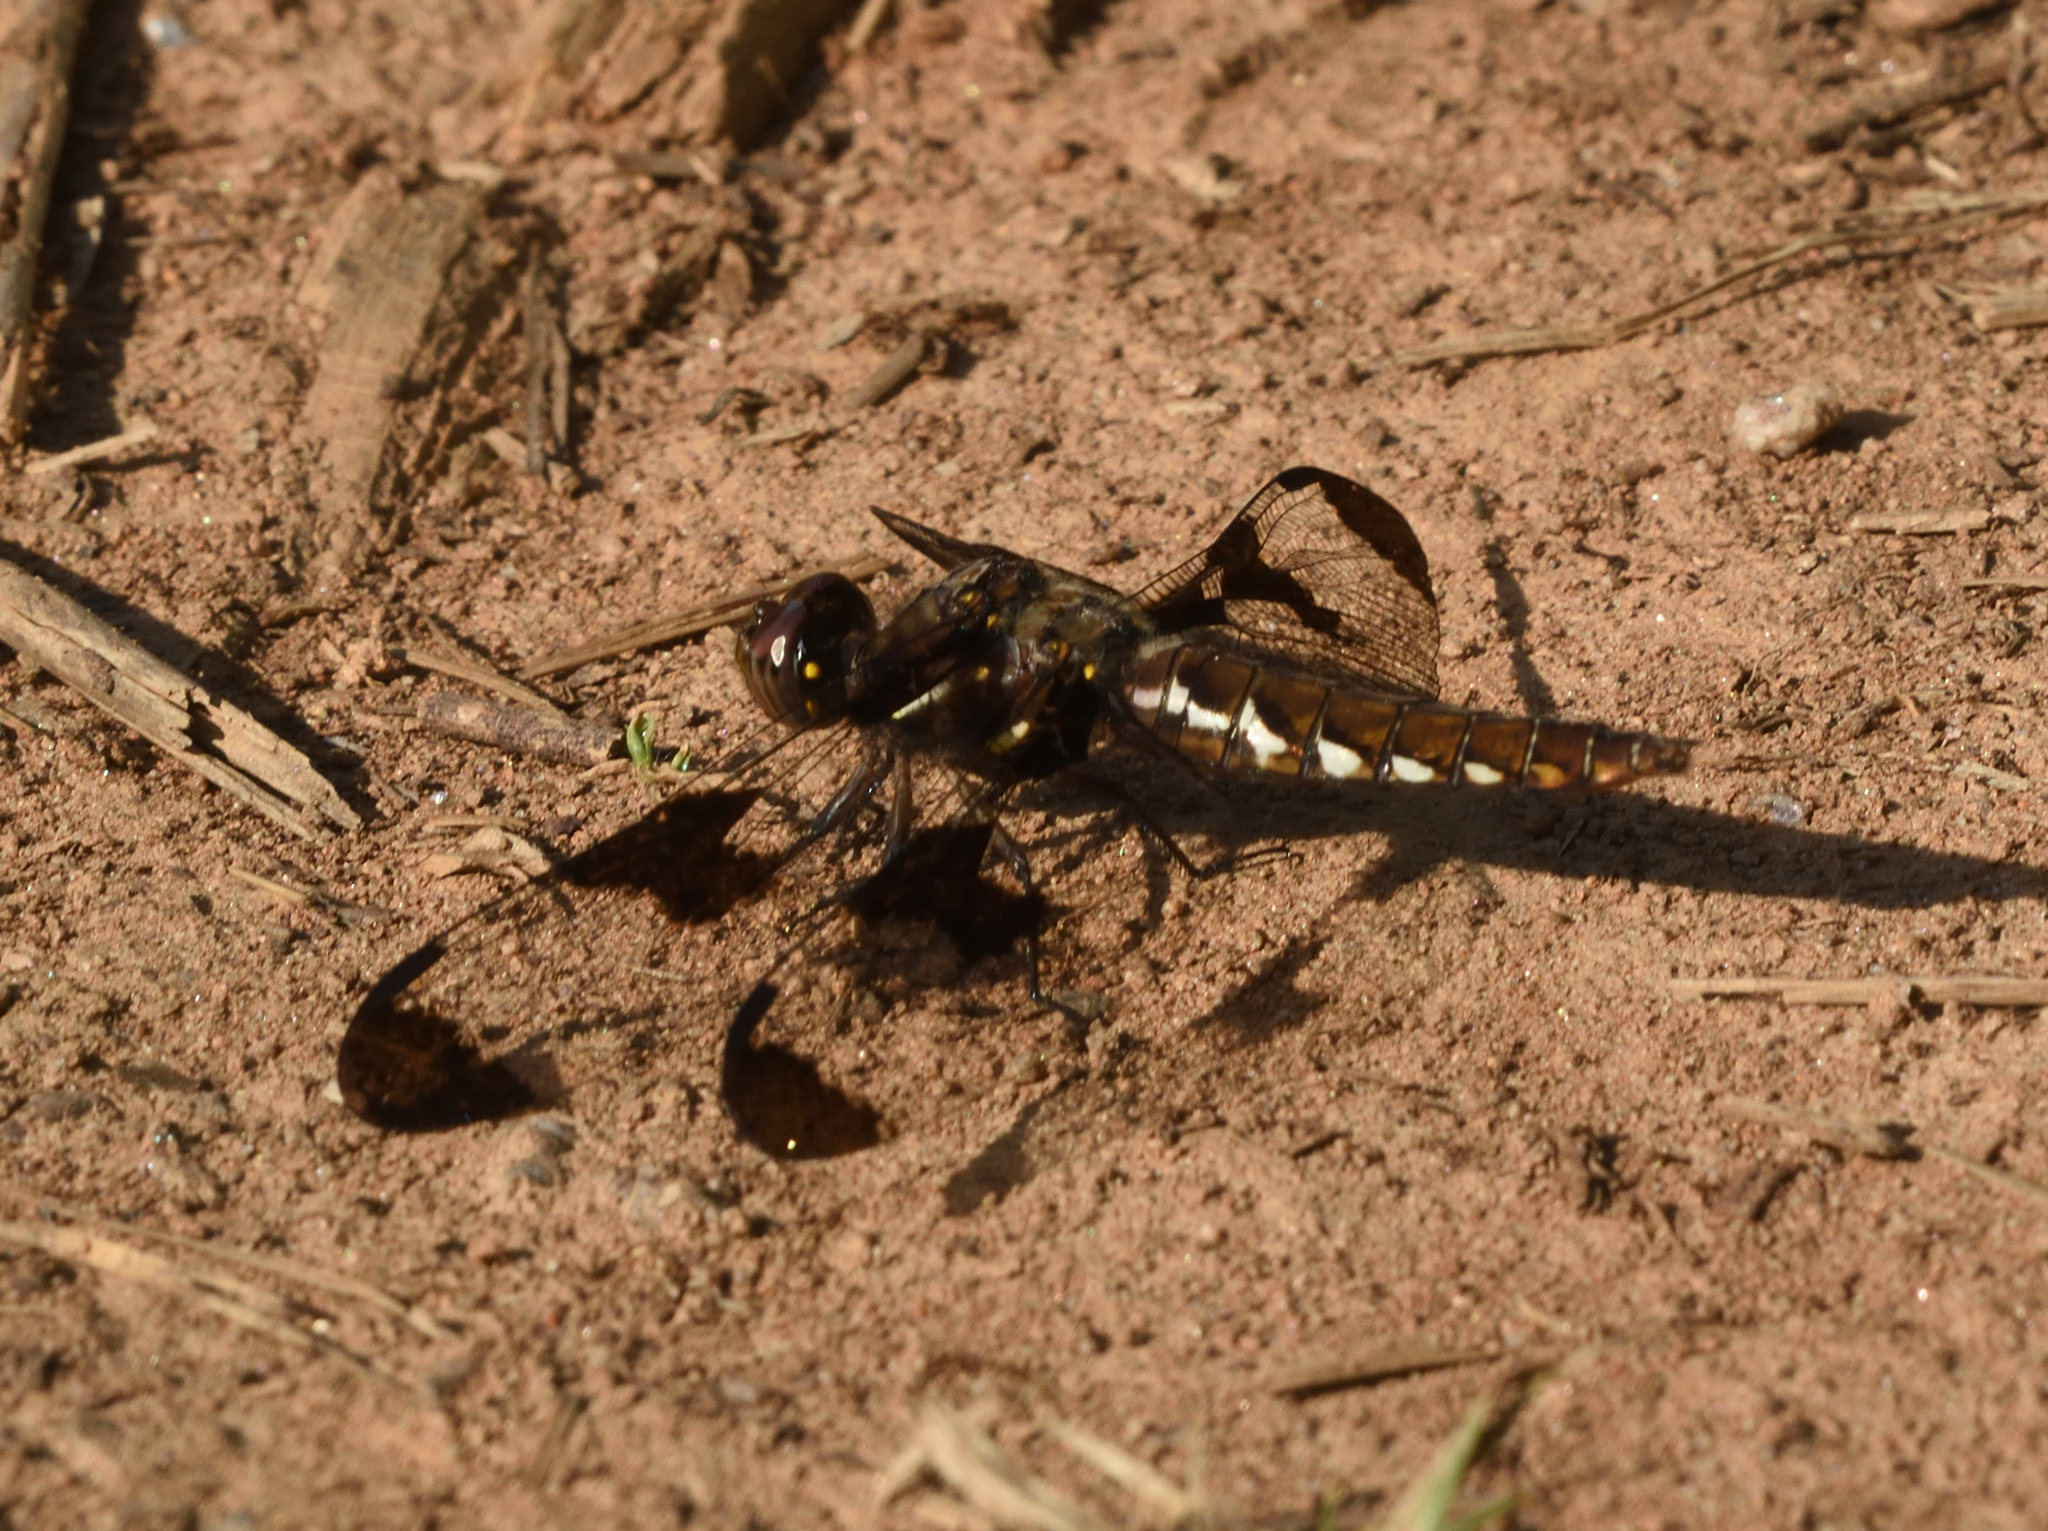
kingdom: Animalia
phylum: Arthropoda
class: Insecta
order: Odonata
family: Libellulidae
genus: Plathemis
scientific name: Plathemis lydia
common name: Common whitetail
